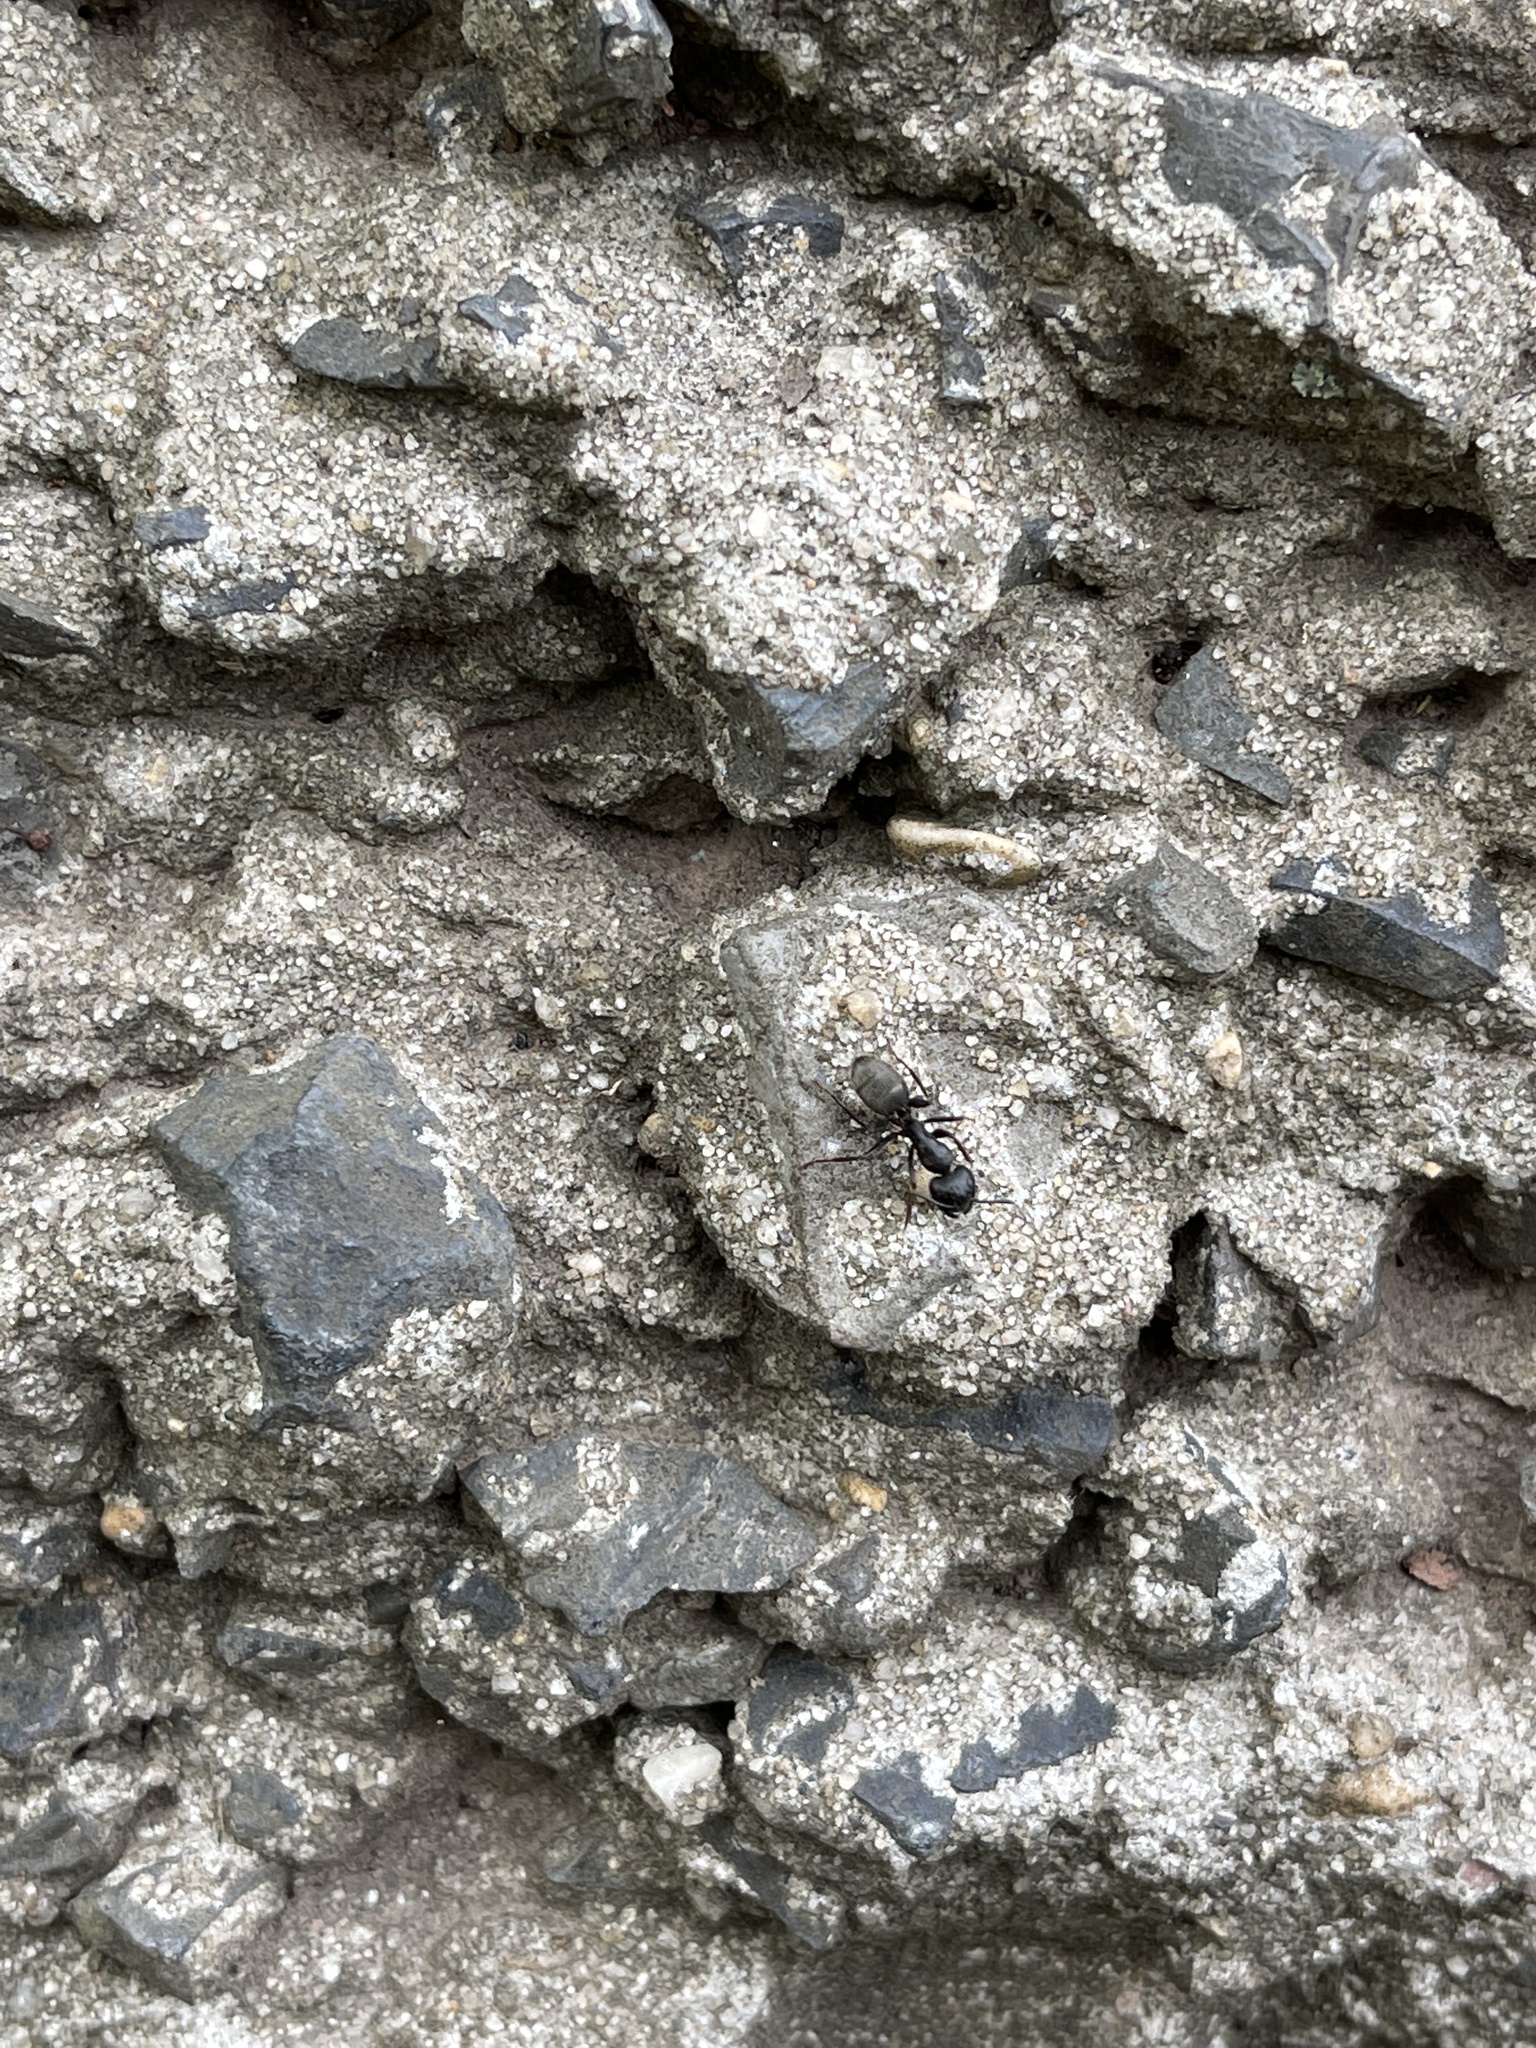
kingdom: Animalia
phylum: Arthropoda
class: Insecta
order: Hymenoptera
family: Formicidae
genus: Camponotus
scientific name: Camponotus pennsylvanicus
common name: Black carpenter ant
